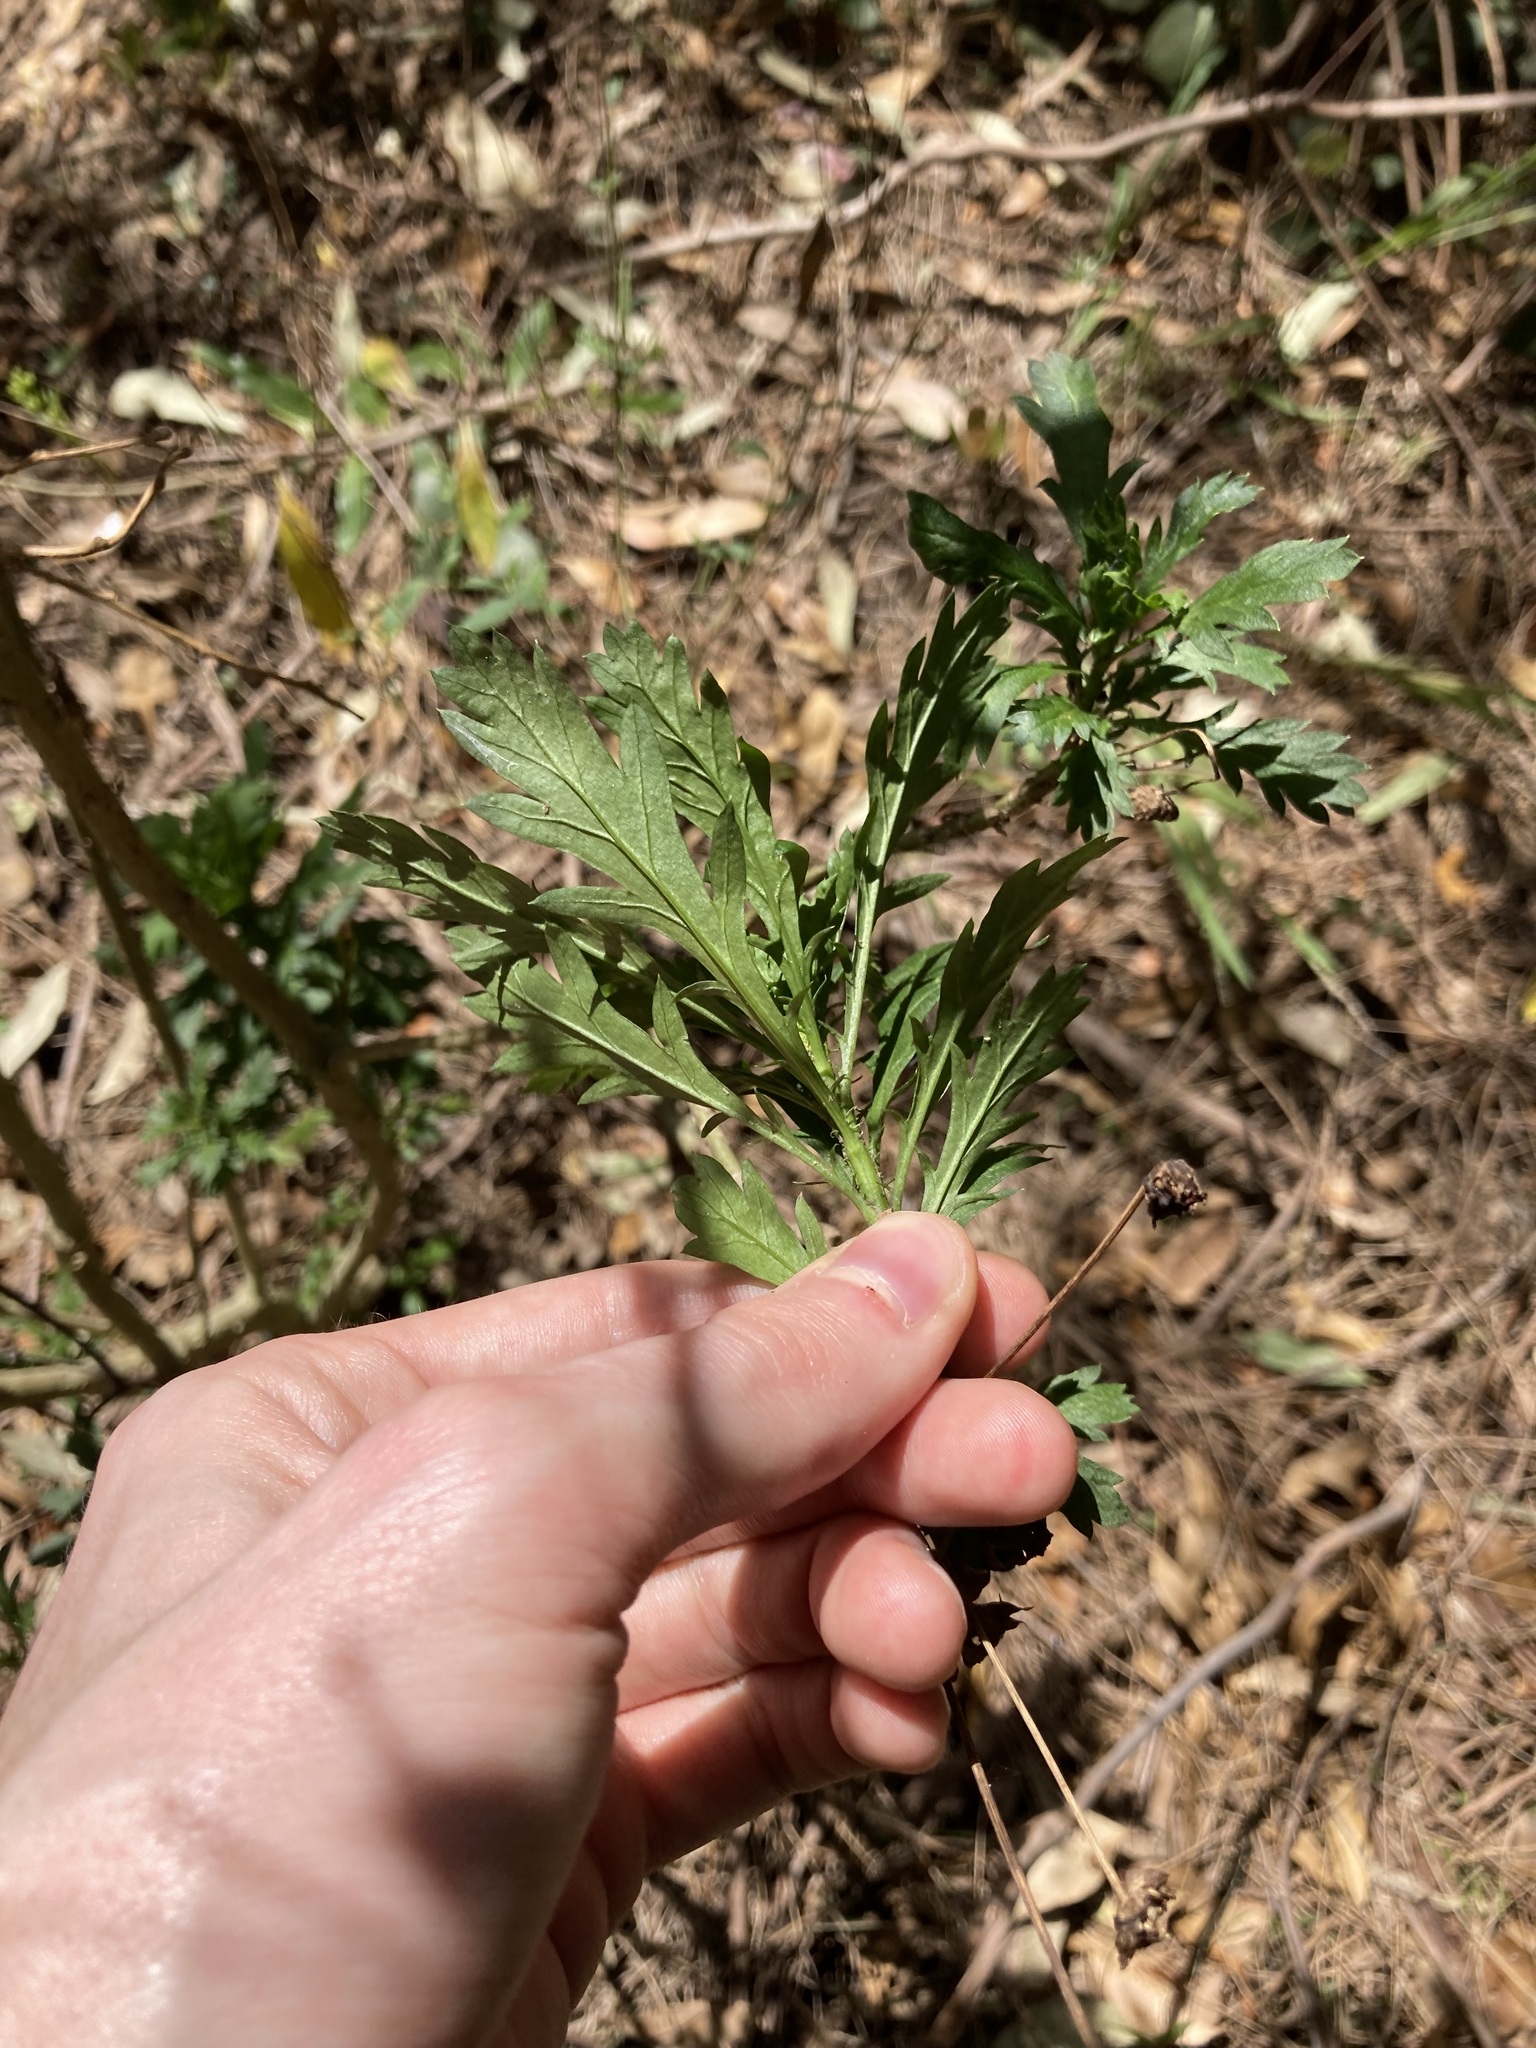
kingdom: Plantae
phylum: Tracheophyta
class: Magnoliopsida
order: Asterales
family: Asteraceae
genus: Euryops
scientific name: Euryops chrysanthemoides
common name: Bull's eye
